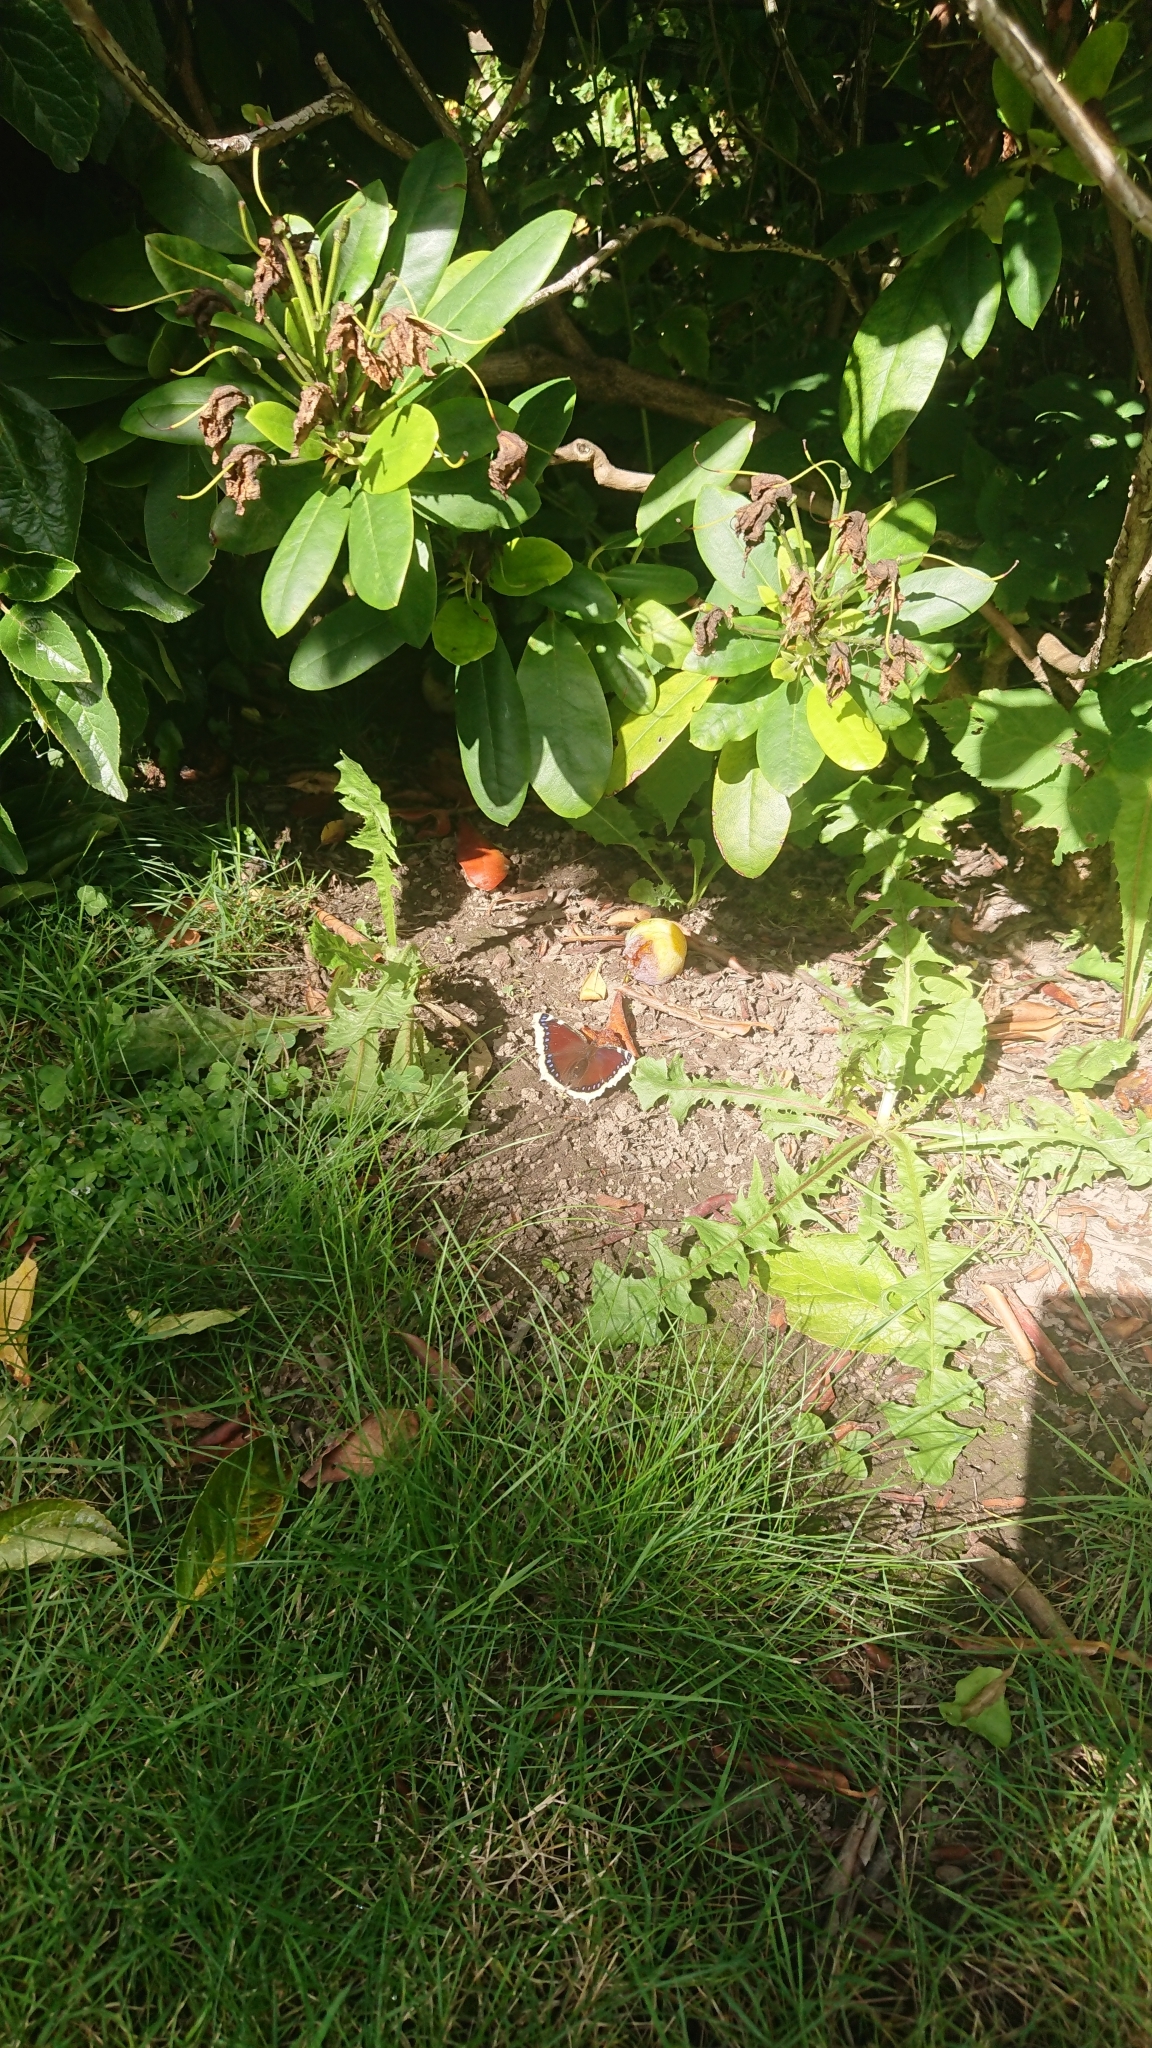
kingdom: Animalia
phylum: Arthropoda
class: Insecta
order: Lepidoptera
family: Nymphalidae
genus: Nymphalis
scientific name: Nymphalis antiopa
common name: Camberwell beauty
